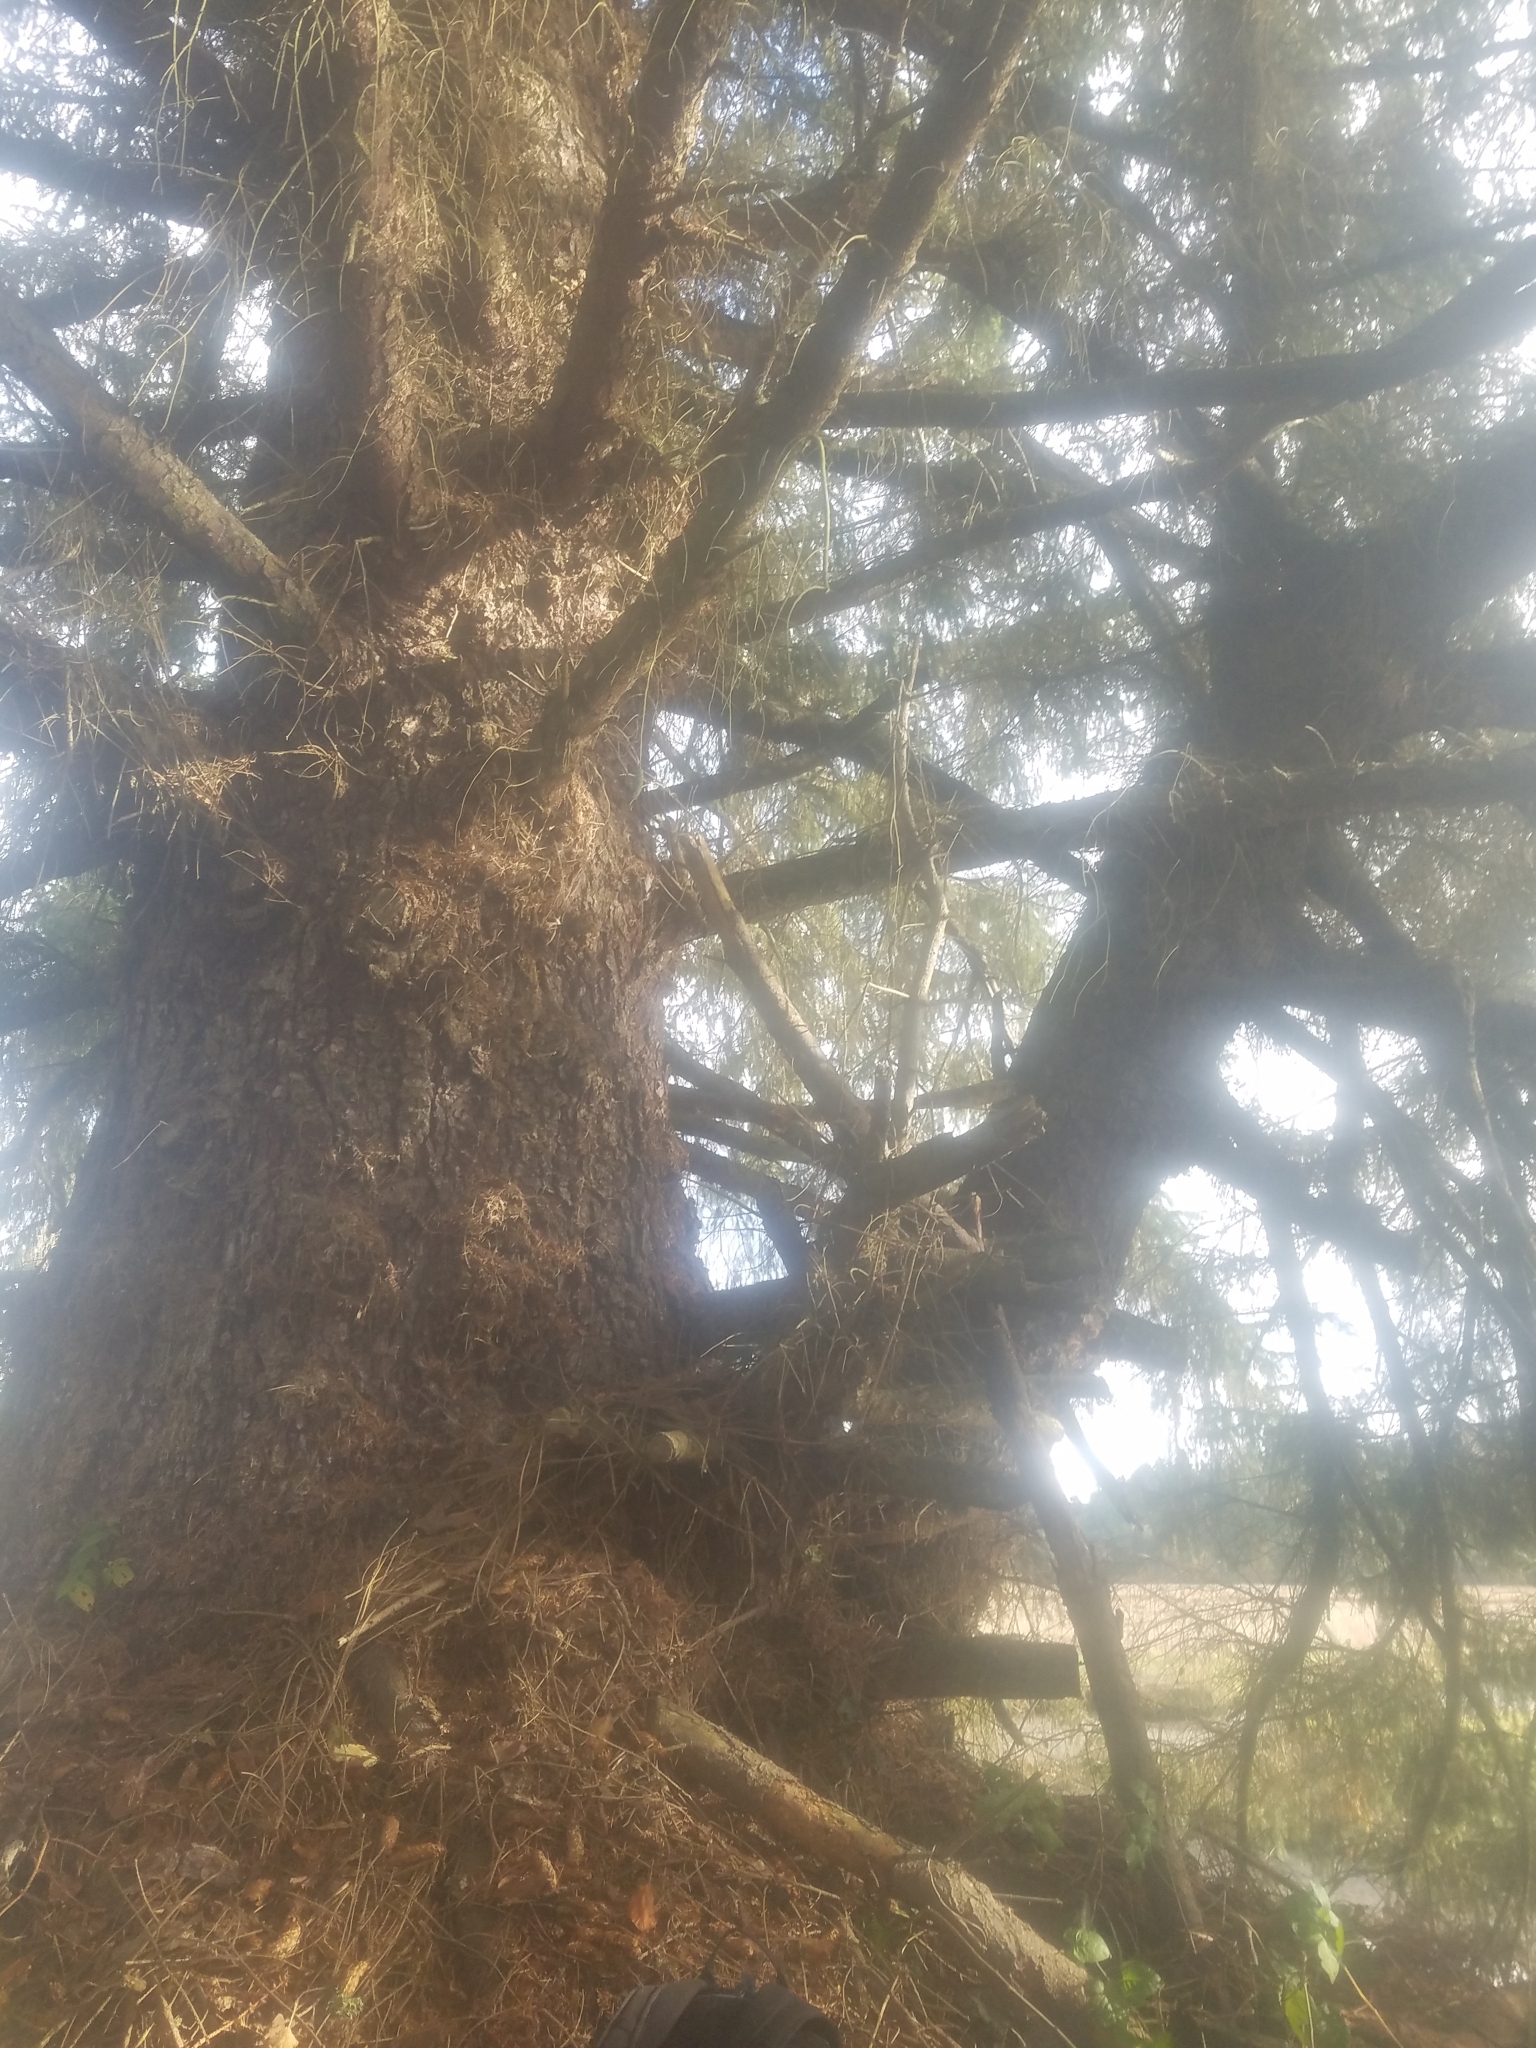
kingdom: Plantae
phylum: Tracheophyta
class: Pinopsida
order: Pinales
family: Pinaceae
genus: Picea
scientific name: Picea sitchensis
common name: Sitka spruce
